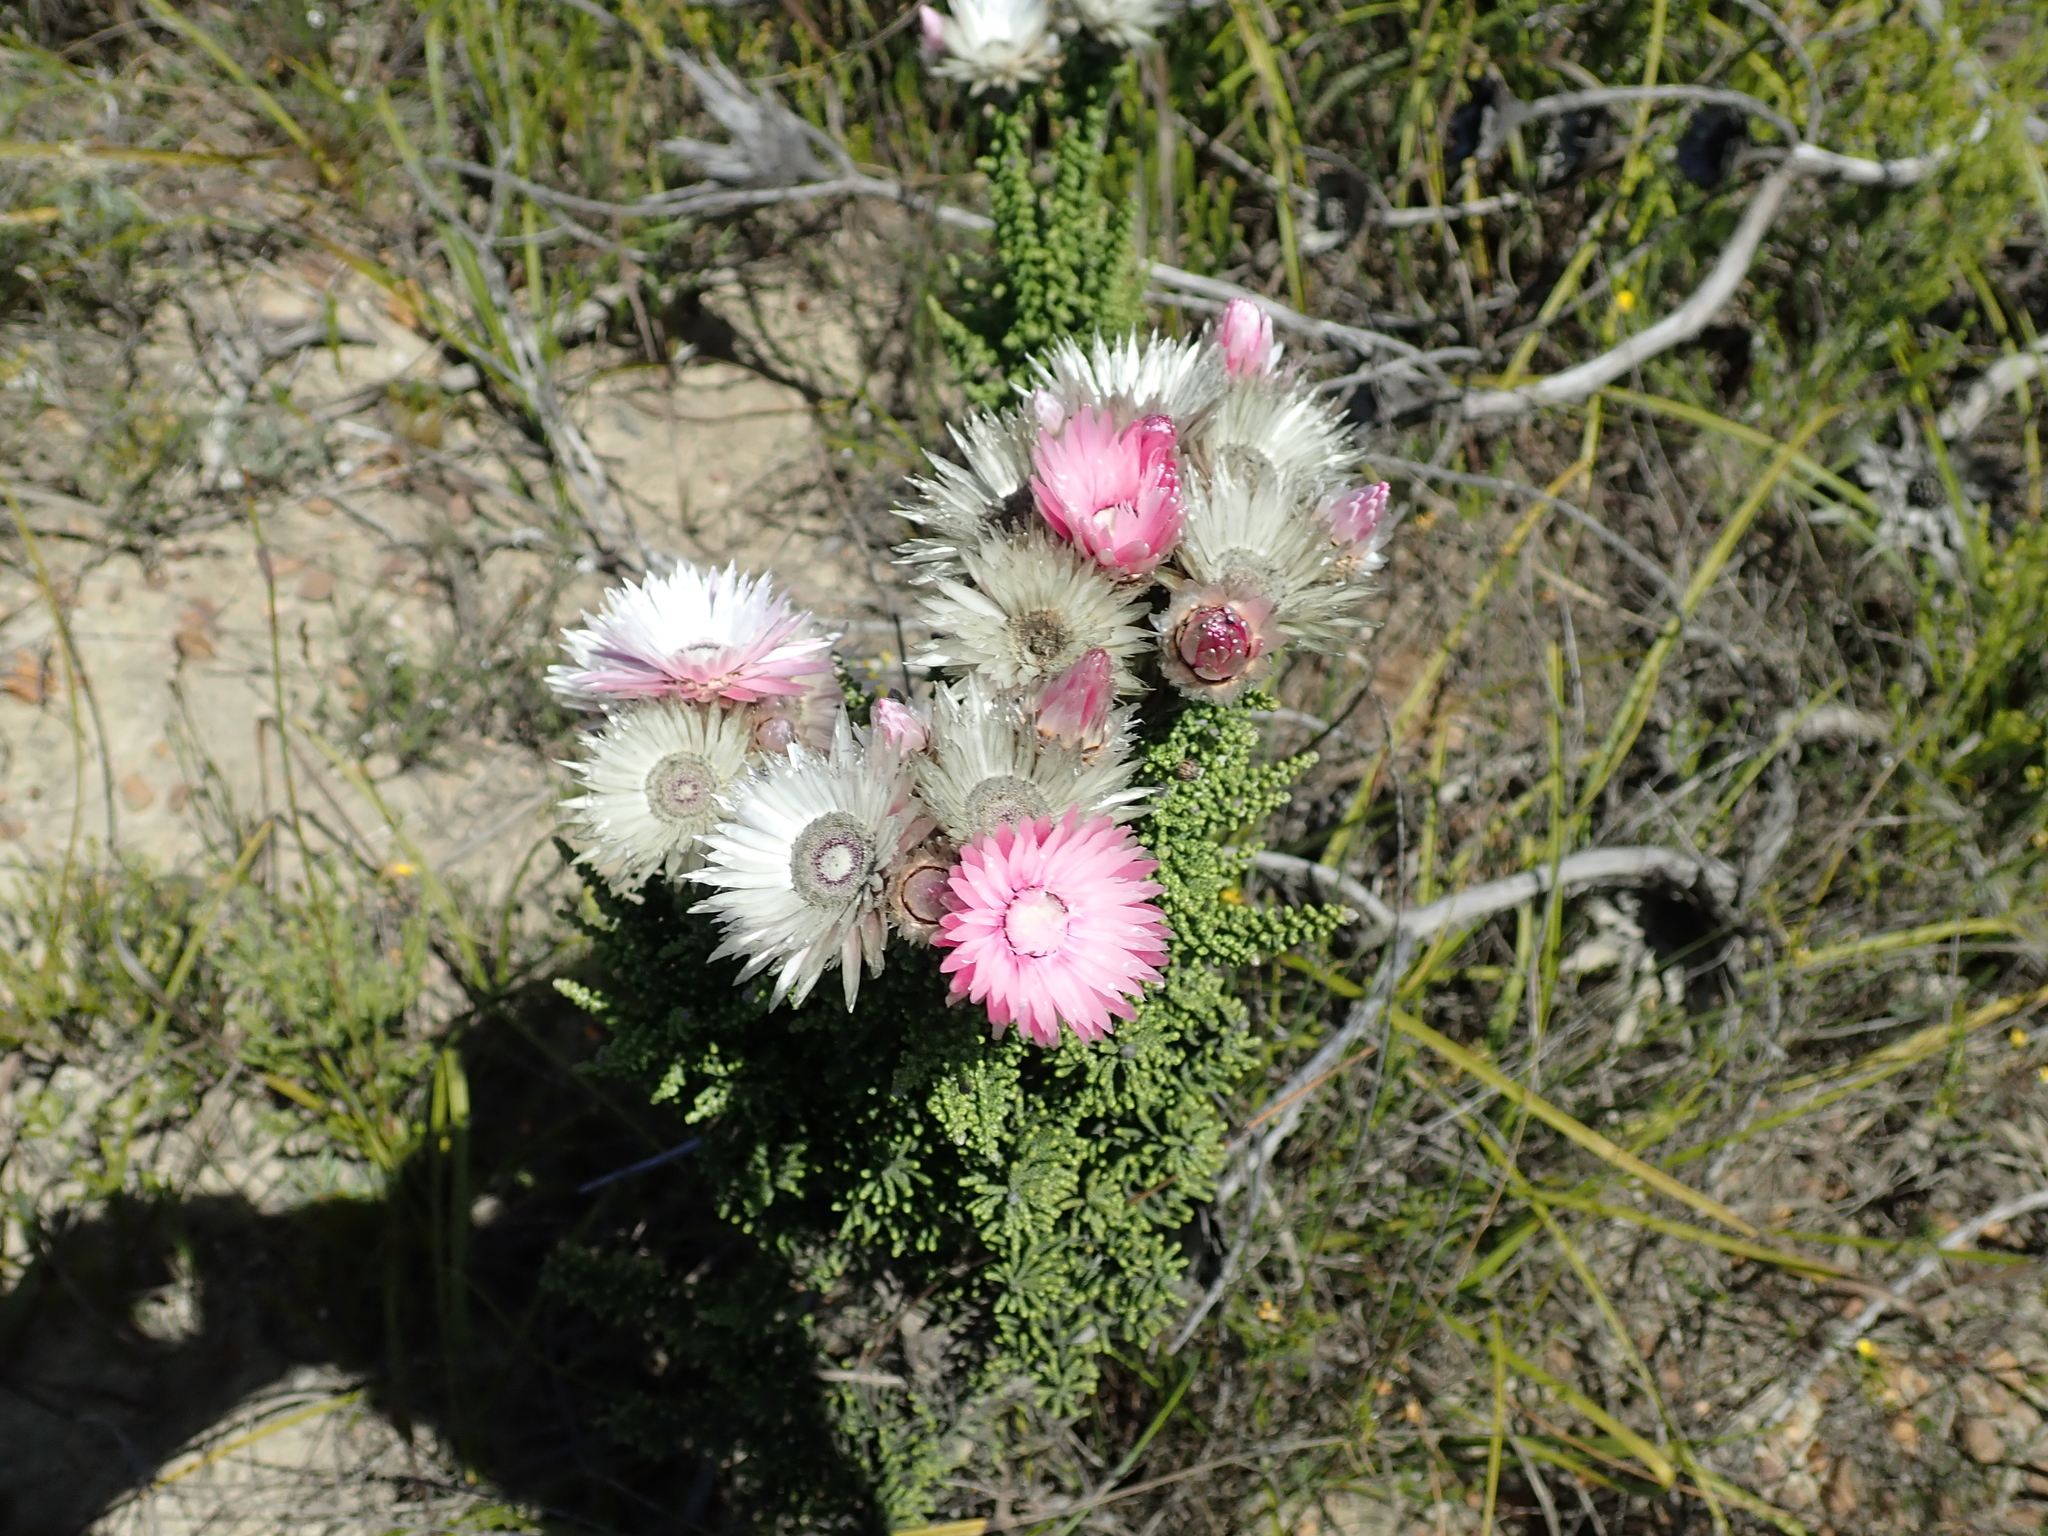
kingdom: Plantae
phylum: Tracheophyta
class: Magnoliopsida
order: Asterales
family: Asteraceae
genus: Phaenocoma
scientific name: Phaenocoma prolifera
